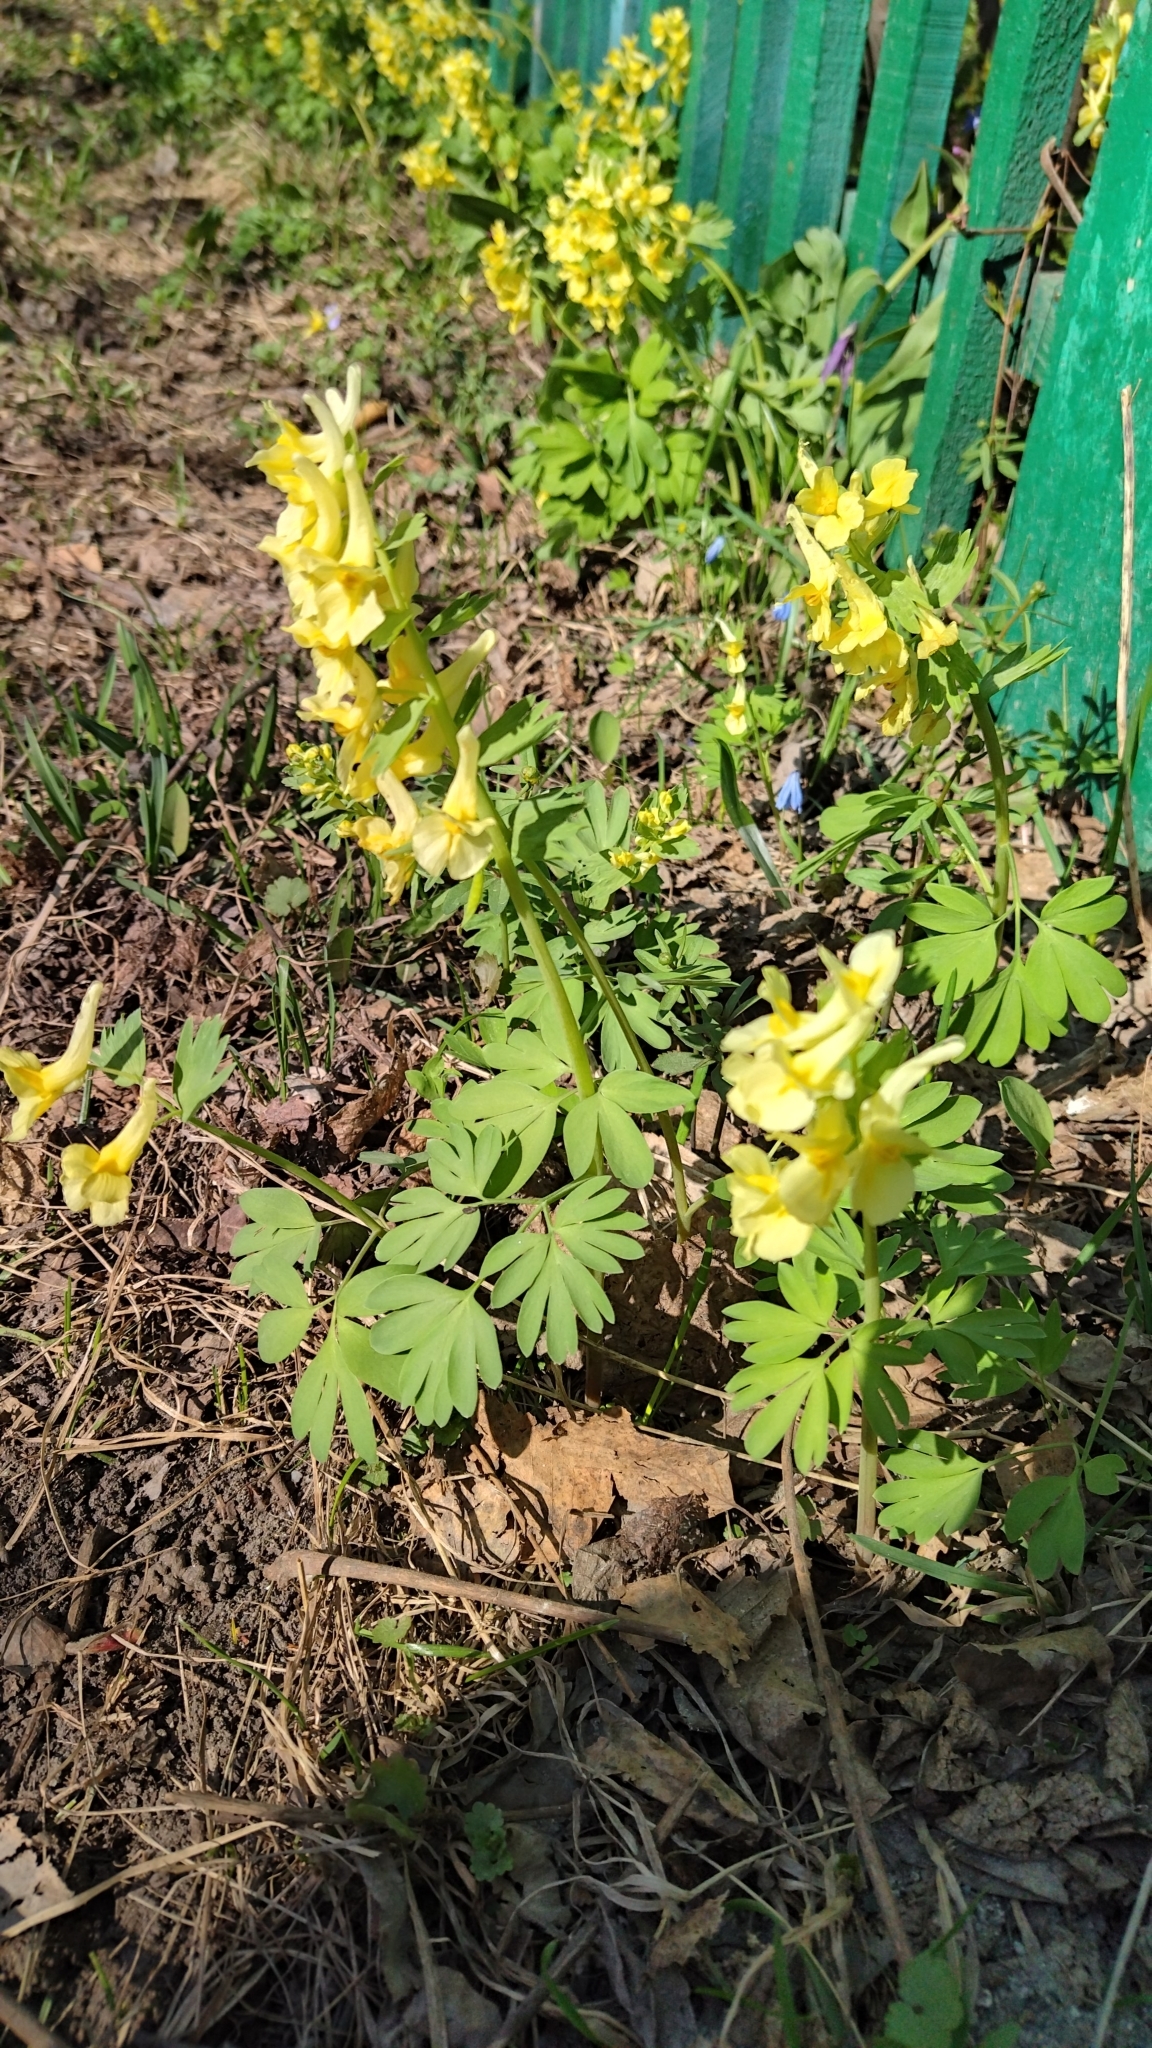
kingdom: Plantae
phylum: Tracheophyta
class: Magnoliopsida
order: Ranunculales
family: Papaveraceae
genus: Corydalis
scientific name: Corydalis bracteata
